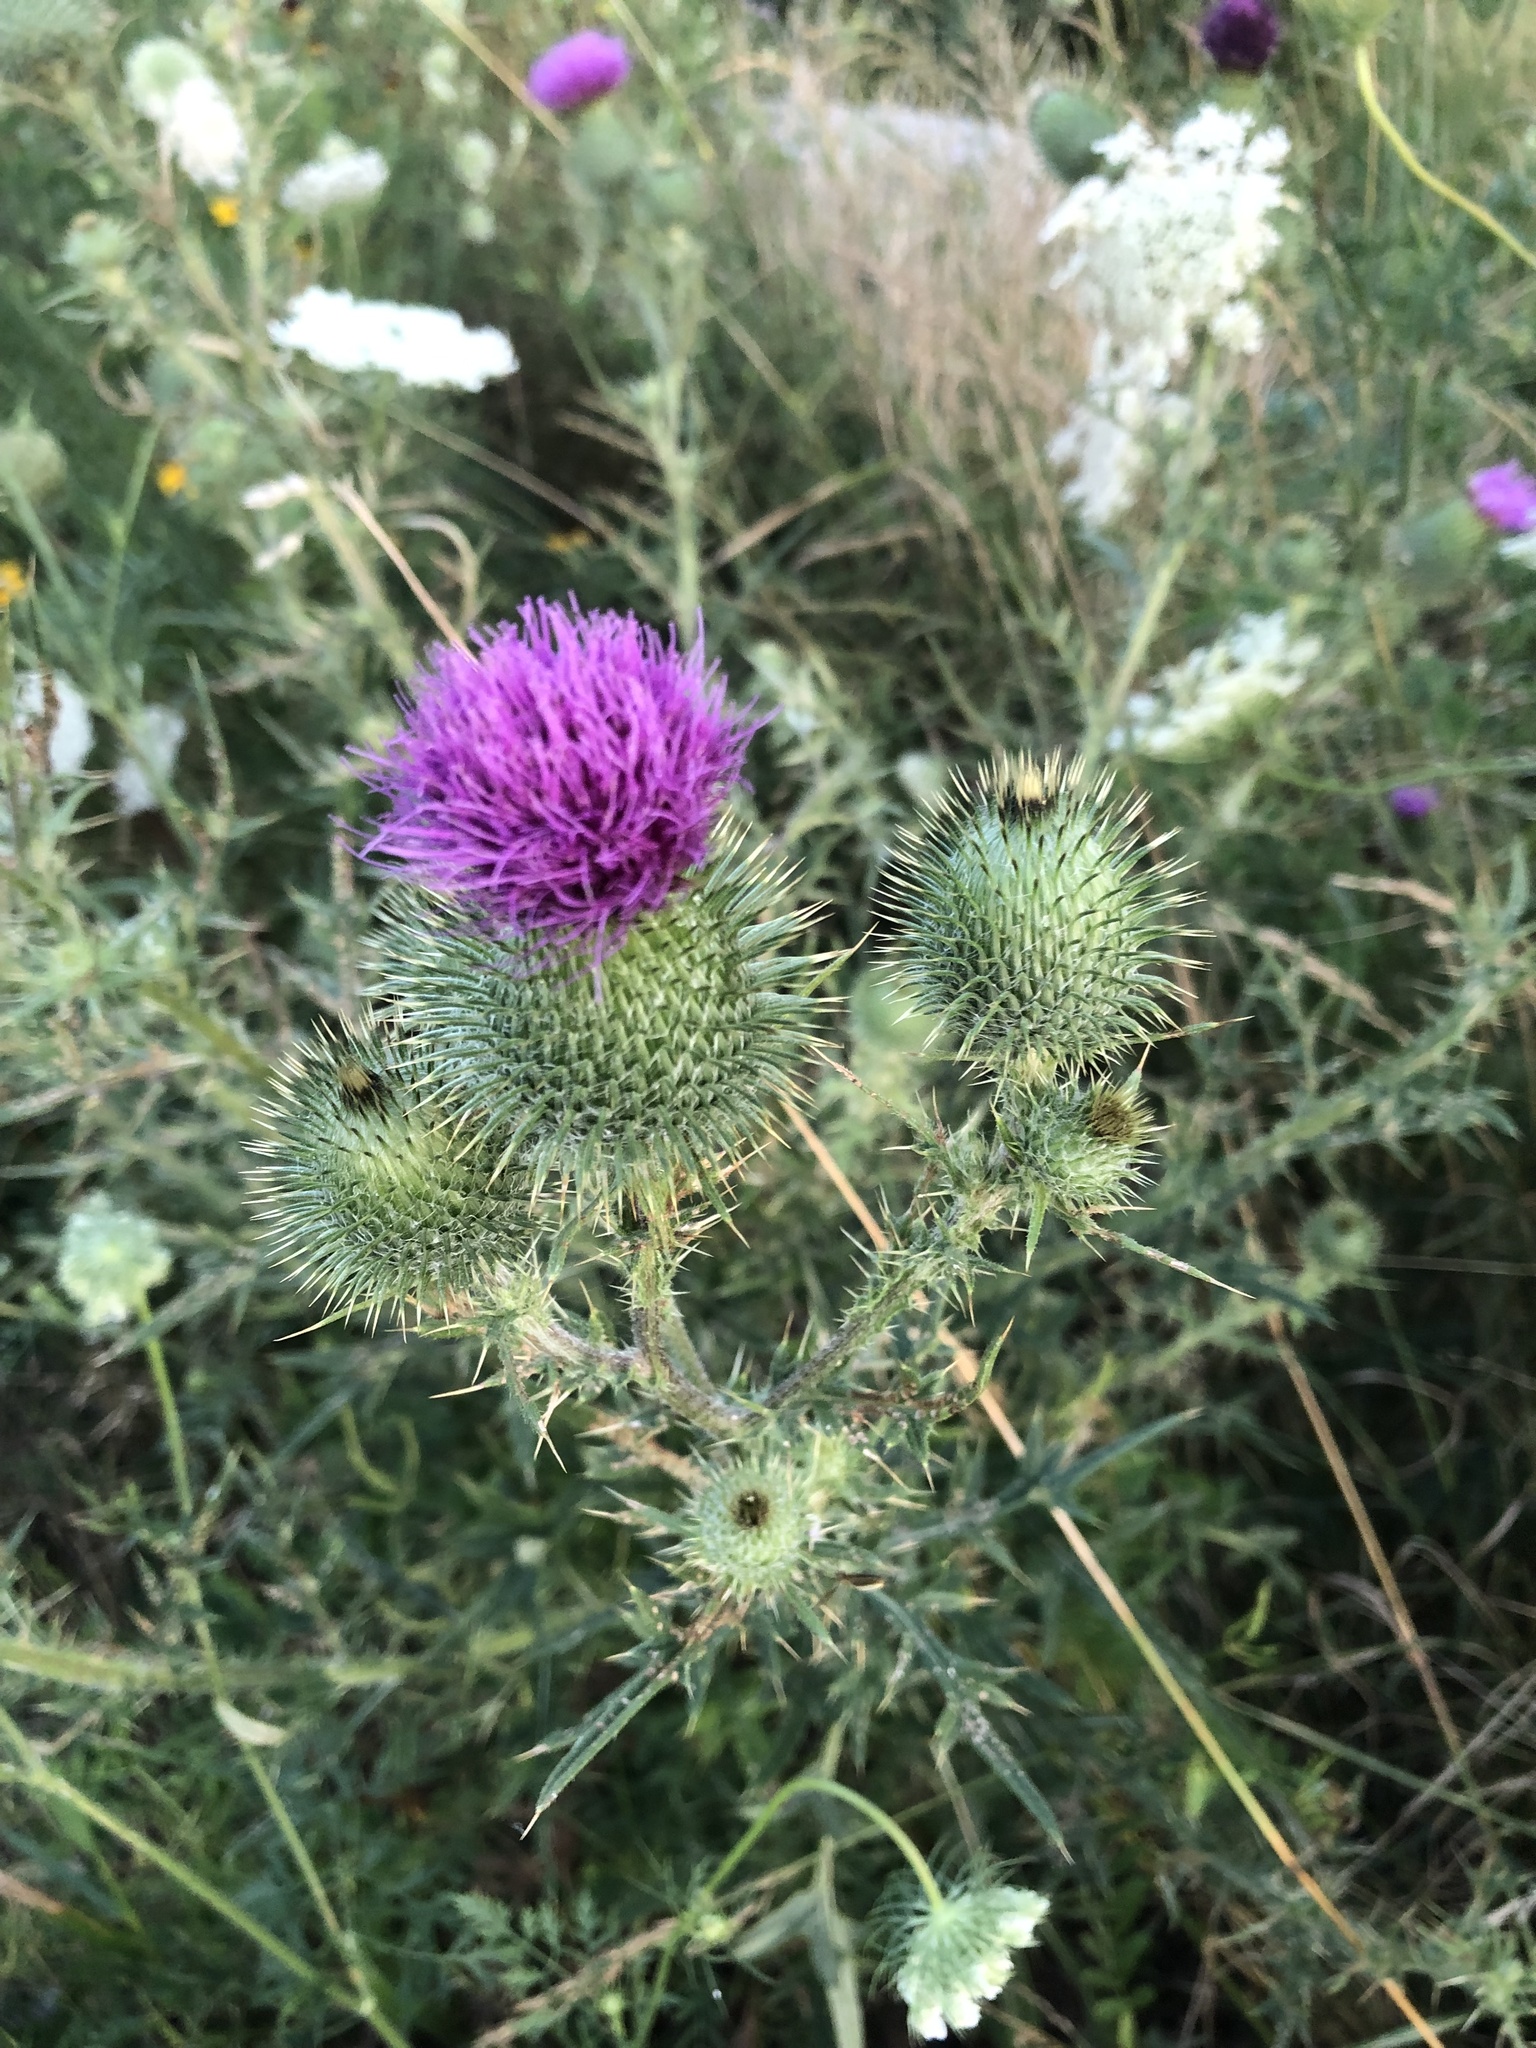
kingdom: Plantae
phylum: Tracheophyta
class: Magnoliopsida
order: Asterales
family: Asteraceae
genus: Cirsium
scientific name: Cirsium vulgare
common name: Bull thistle
